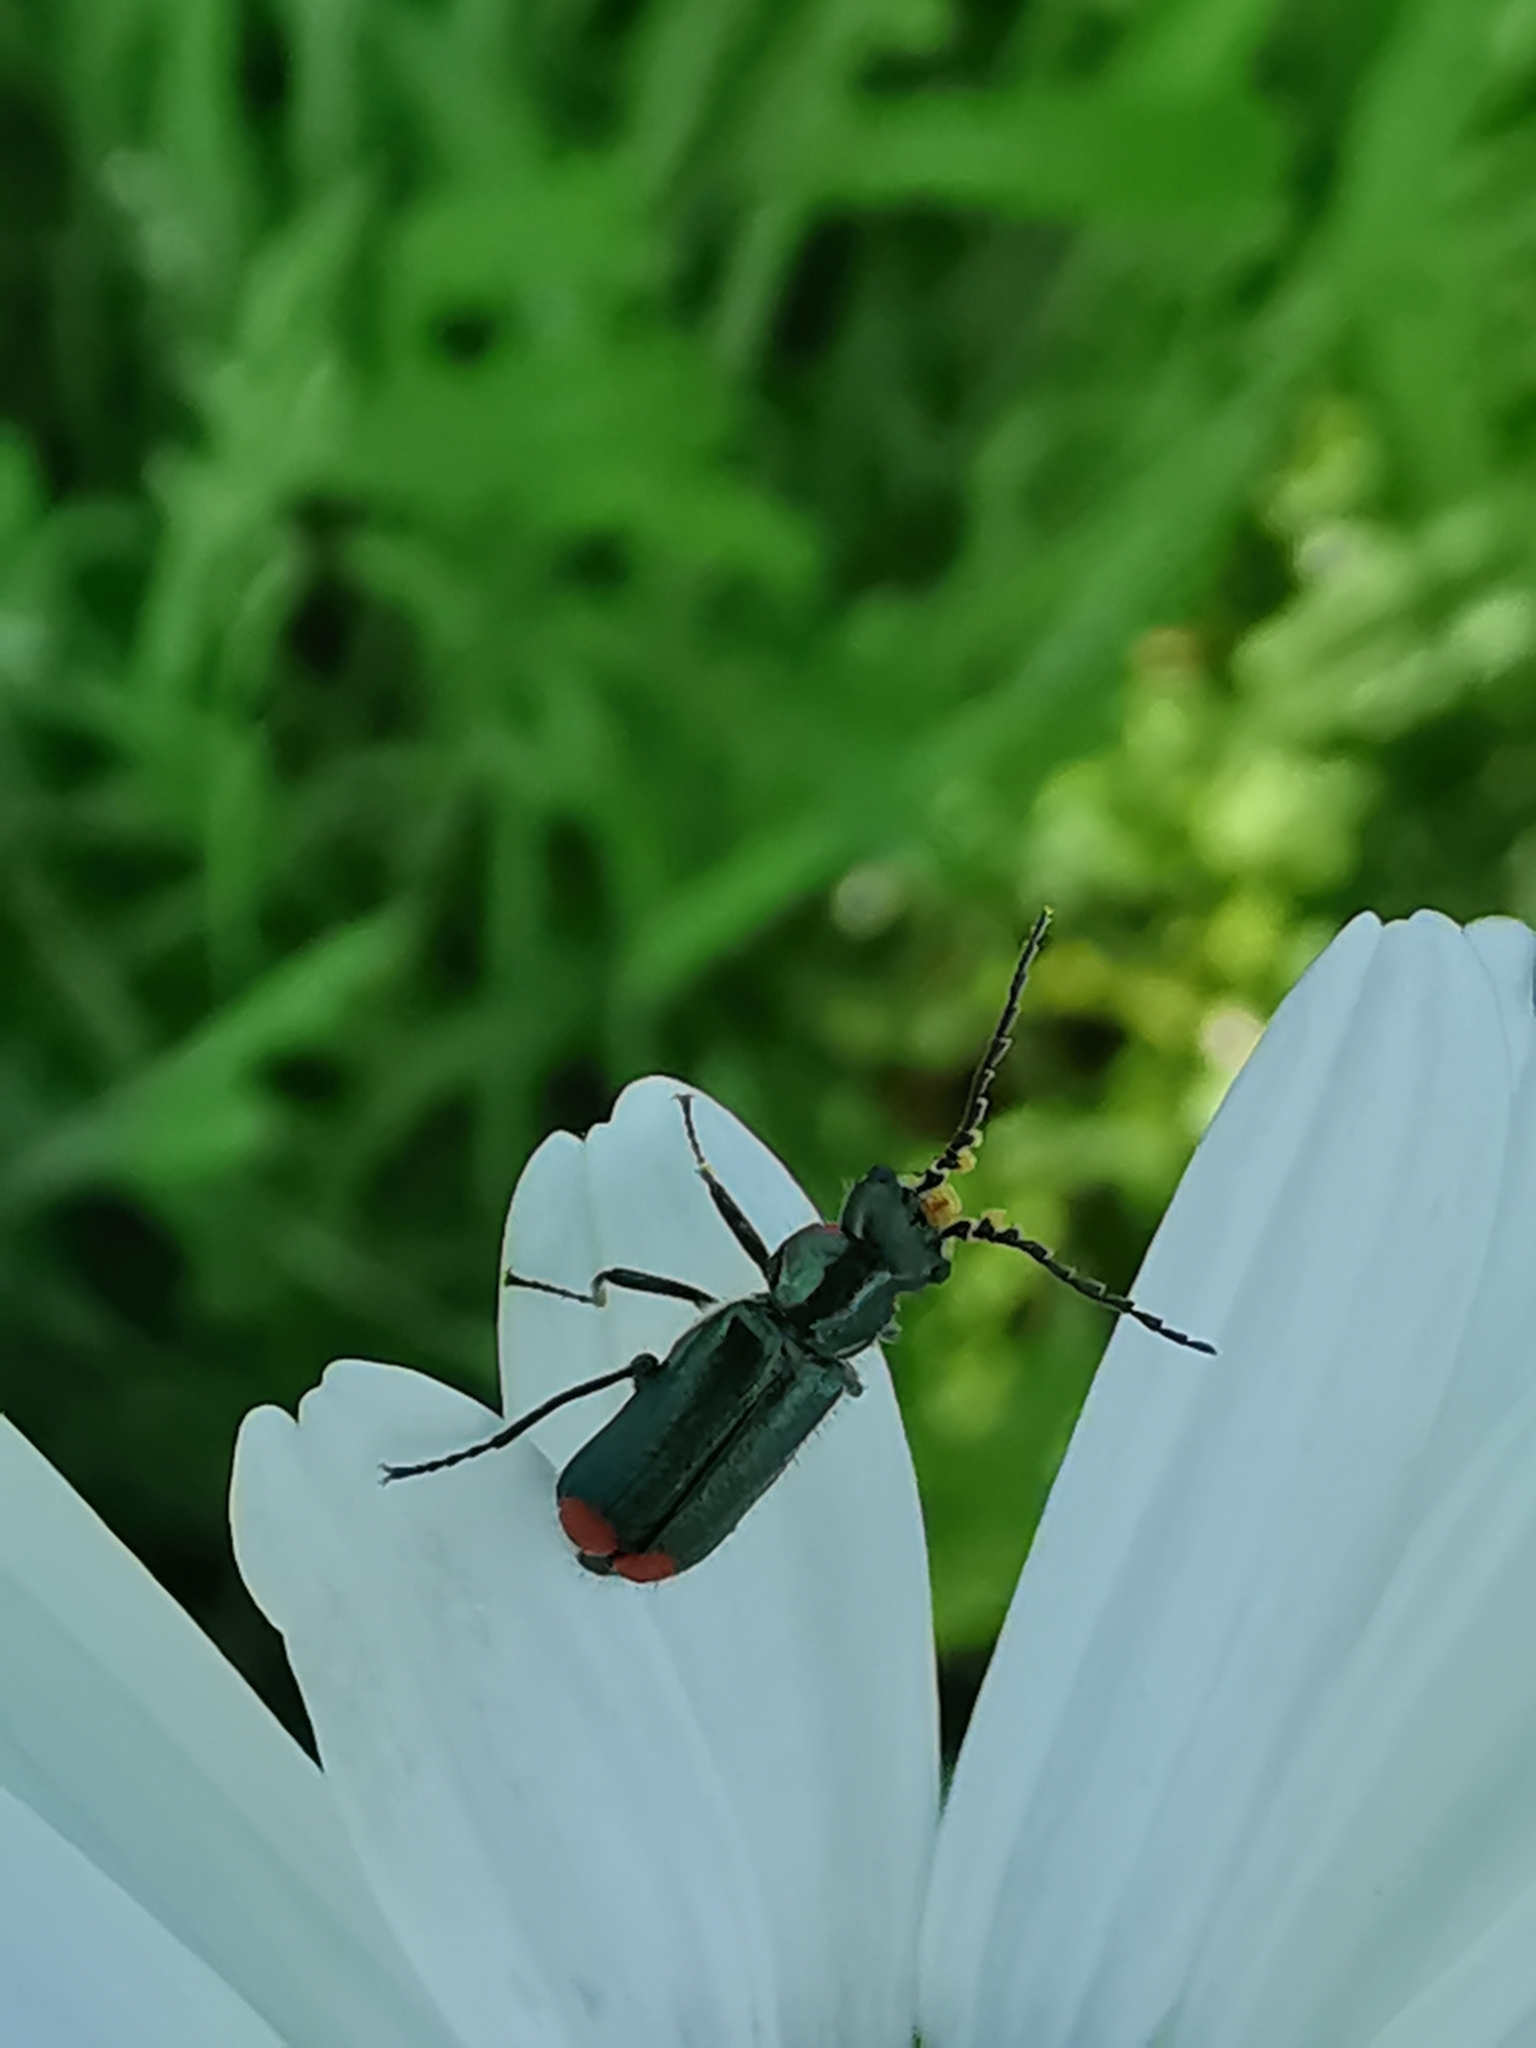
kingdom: Animalia
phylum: Arthropoda
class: Insecta
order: Coleoptera
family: Melyridae
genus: Malachius
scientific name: Malachius bipustulatus
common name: Malachite beetle
